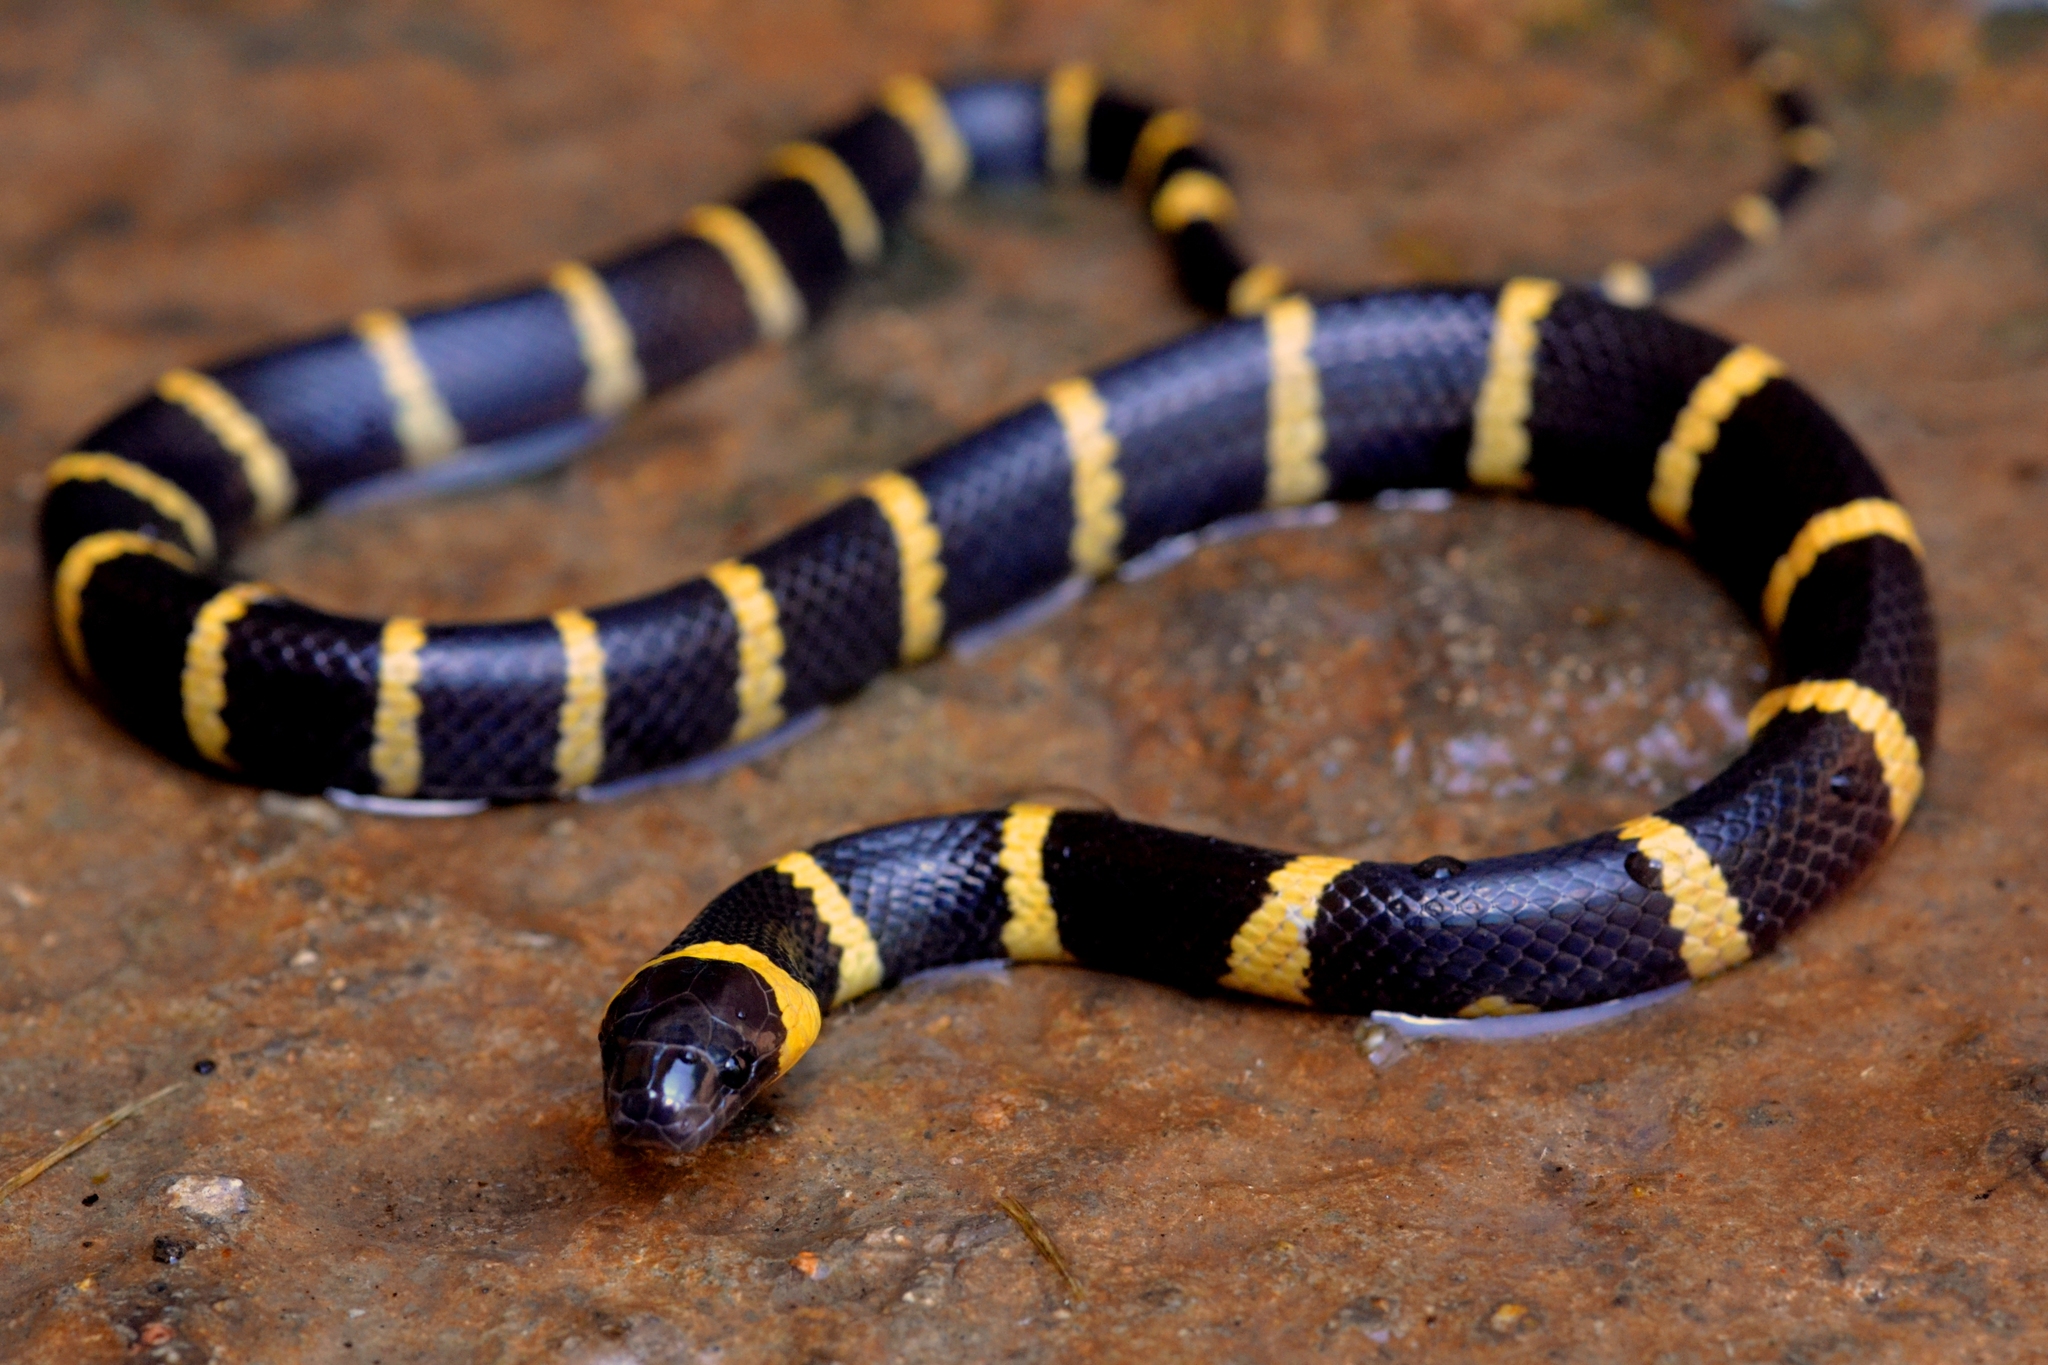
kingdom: Animalia
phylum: Chordata
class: Squamata
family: Colubridae
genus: Geophis
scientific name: Geophis
